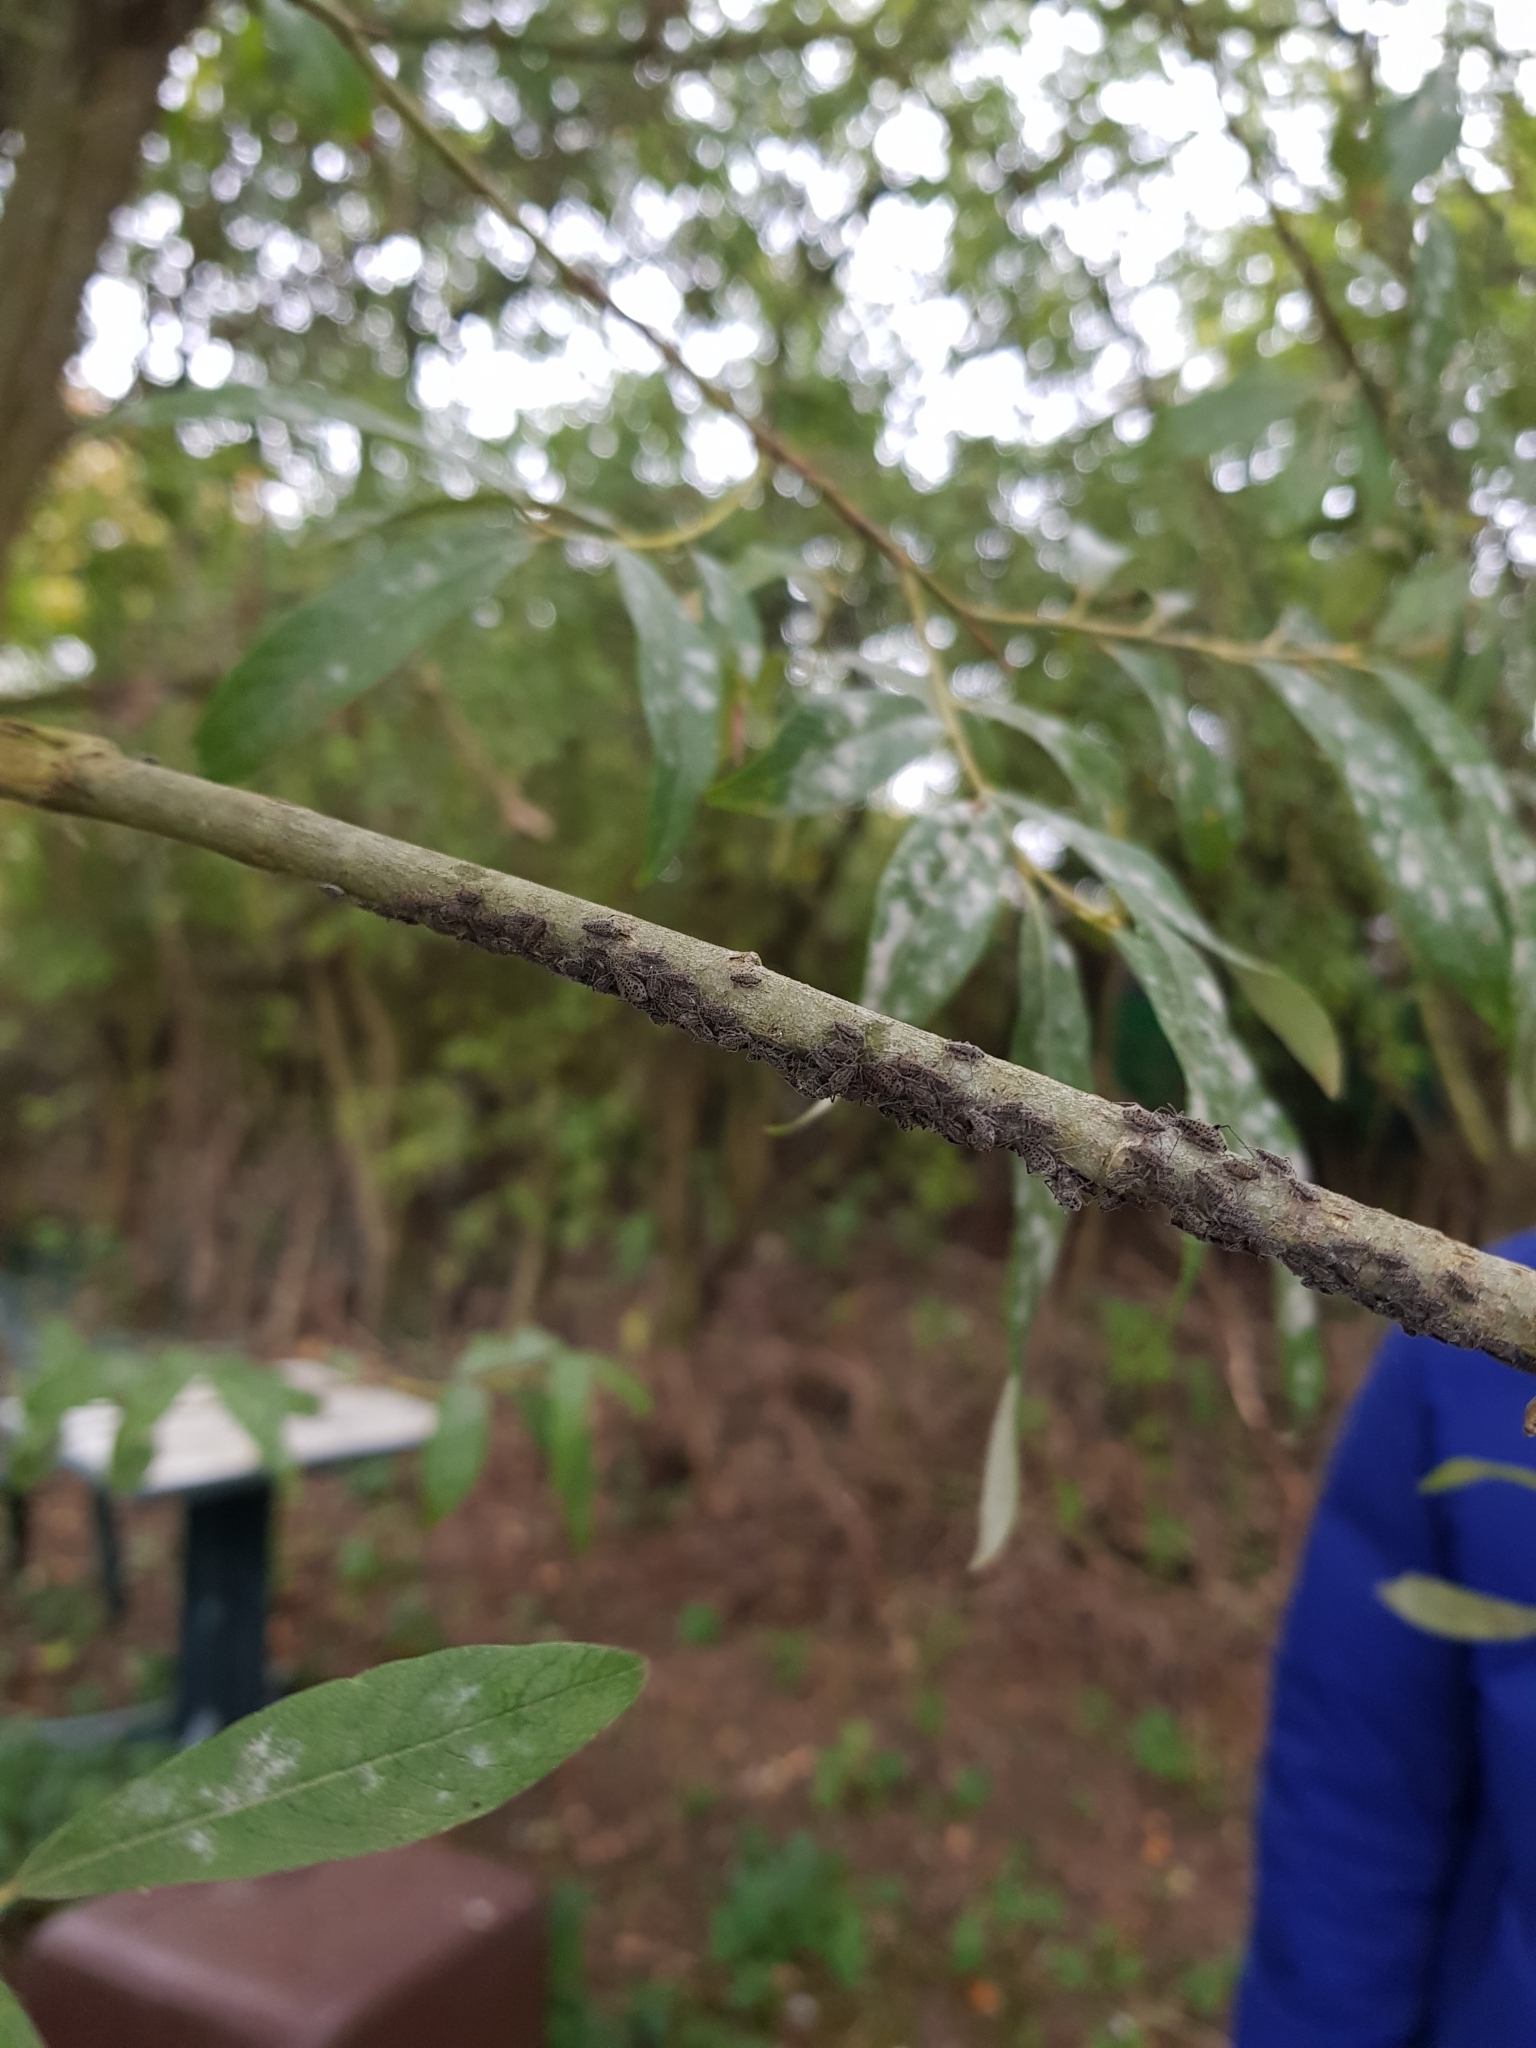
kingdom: Animalia
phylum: Arthropoda
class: Insecta
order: Hemiptera
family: Aphididae
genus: Tuberolachnus
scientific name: Tuberolachnus salignus
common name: Giant willow aphid
